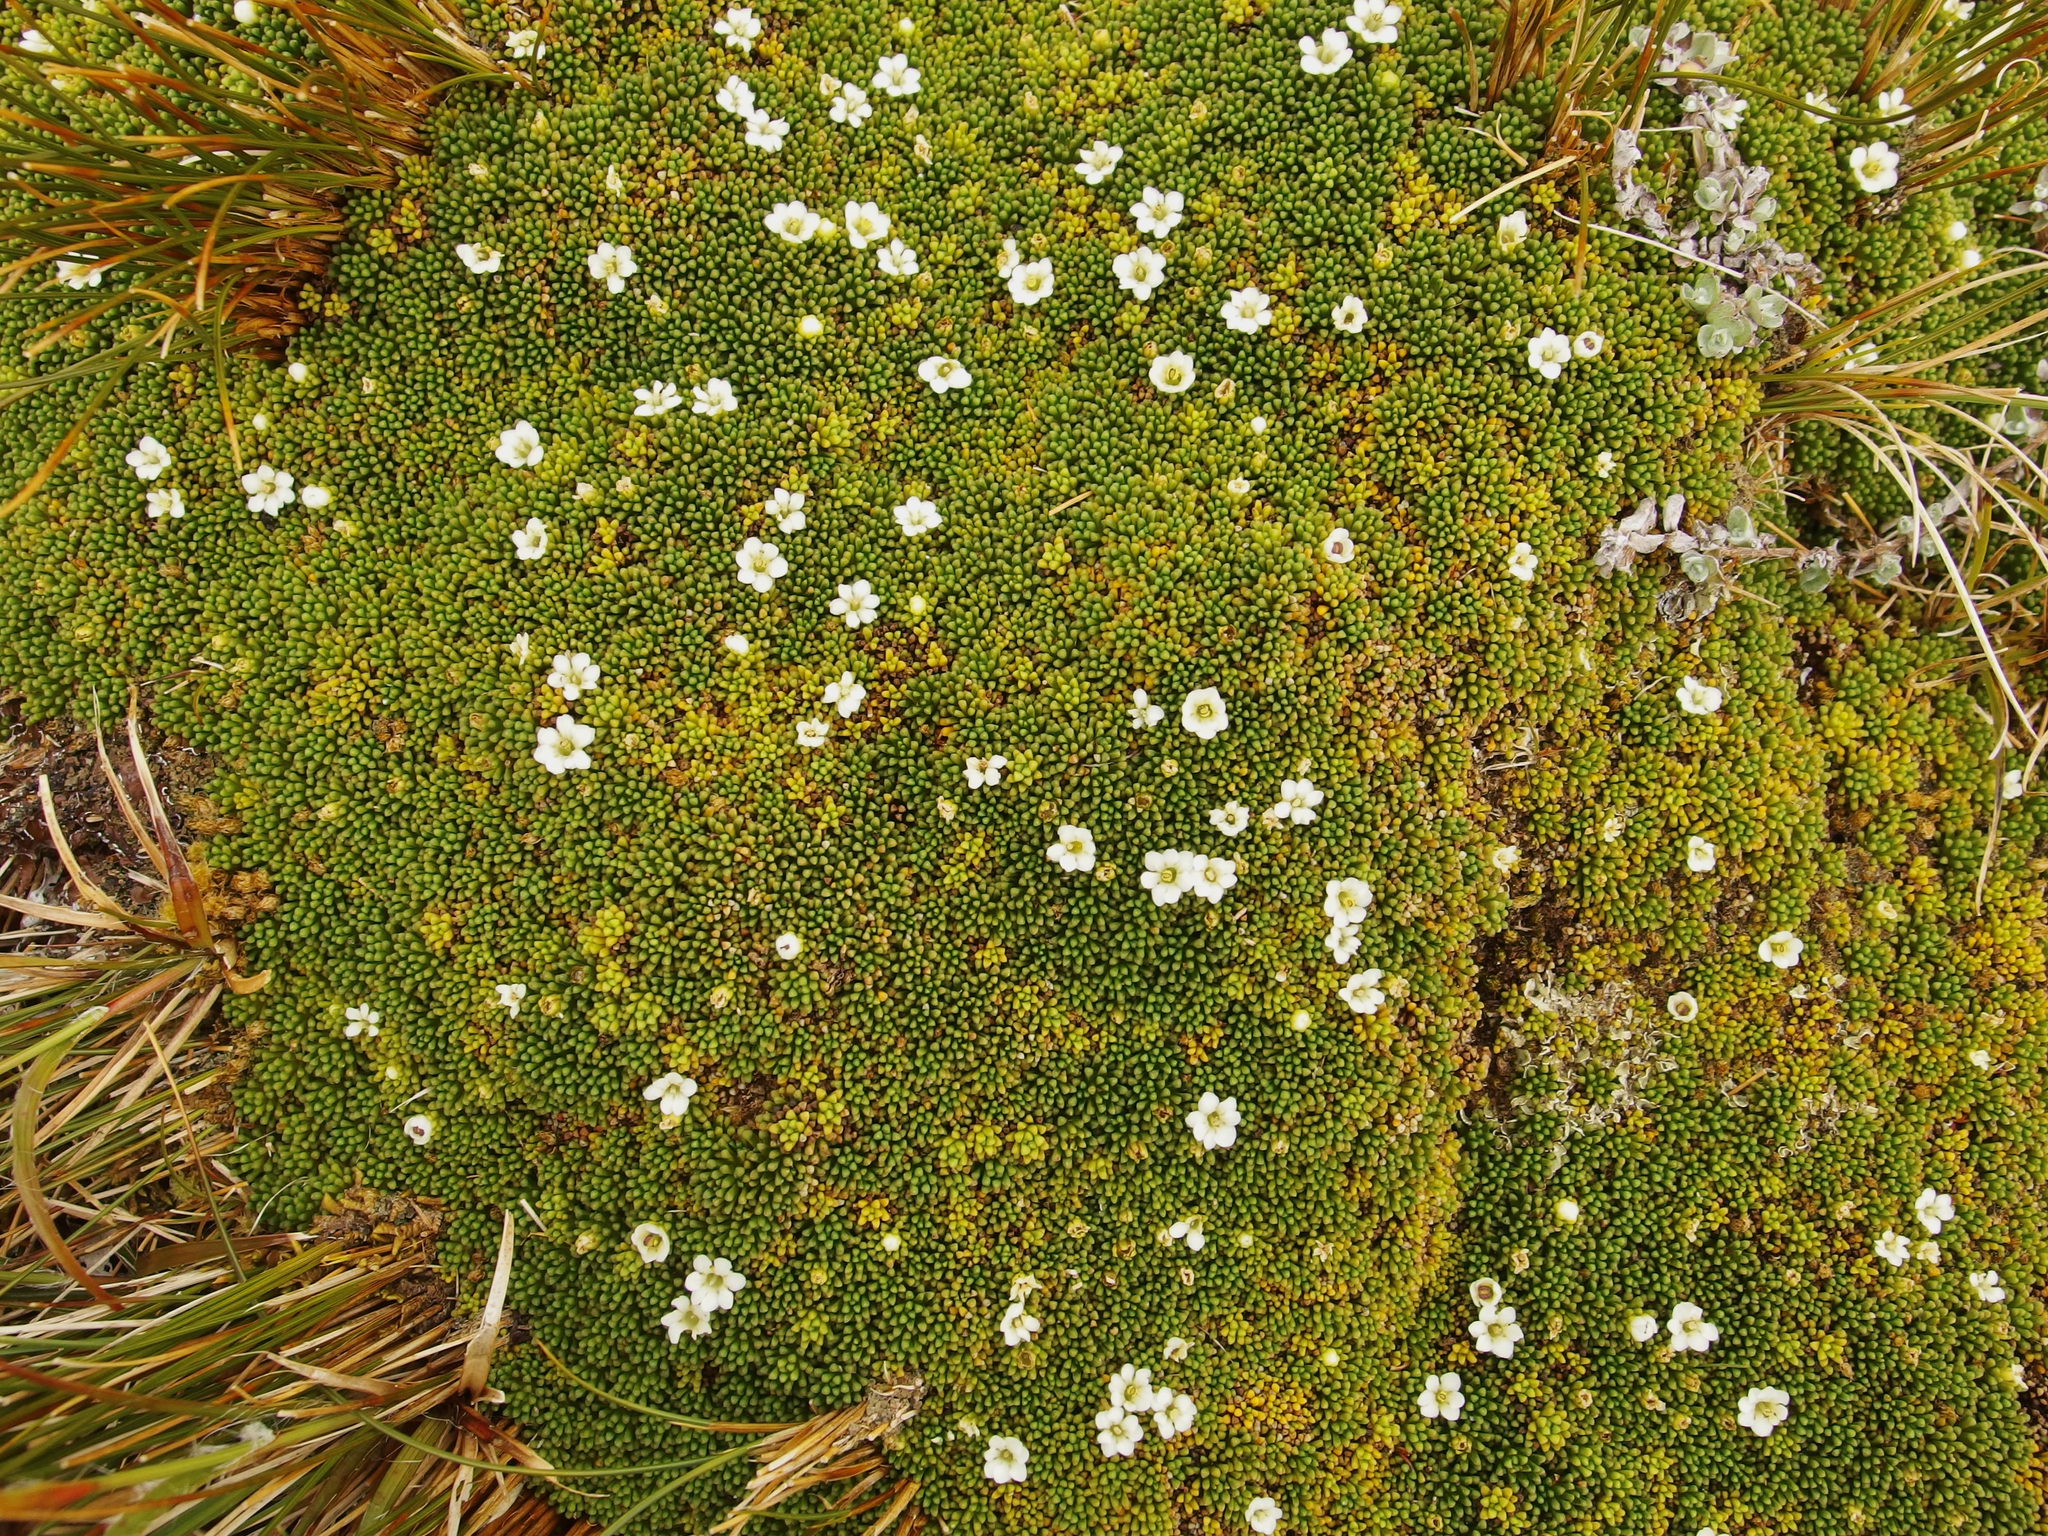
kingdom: Plantae
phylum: Tracheophyta
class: Magnoliopsida
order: Asterales
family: Stylidiaceae
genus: Phyllachne
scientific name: Phyllachne clavigera
